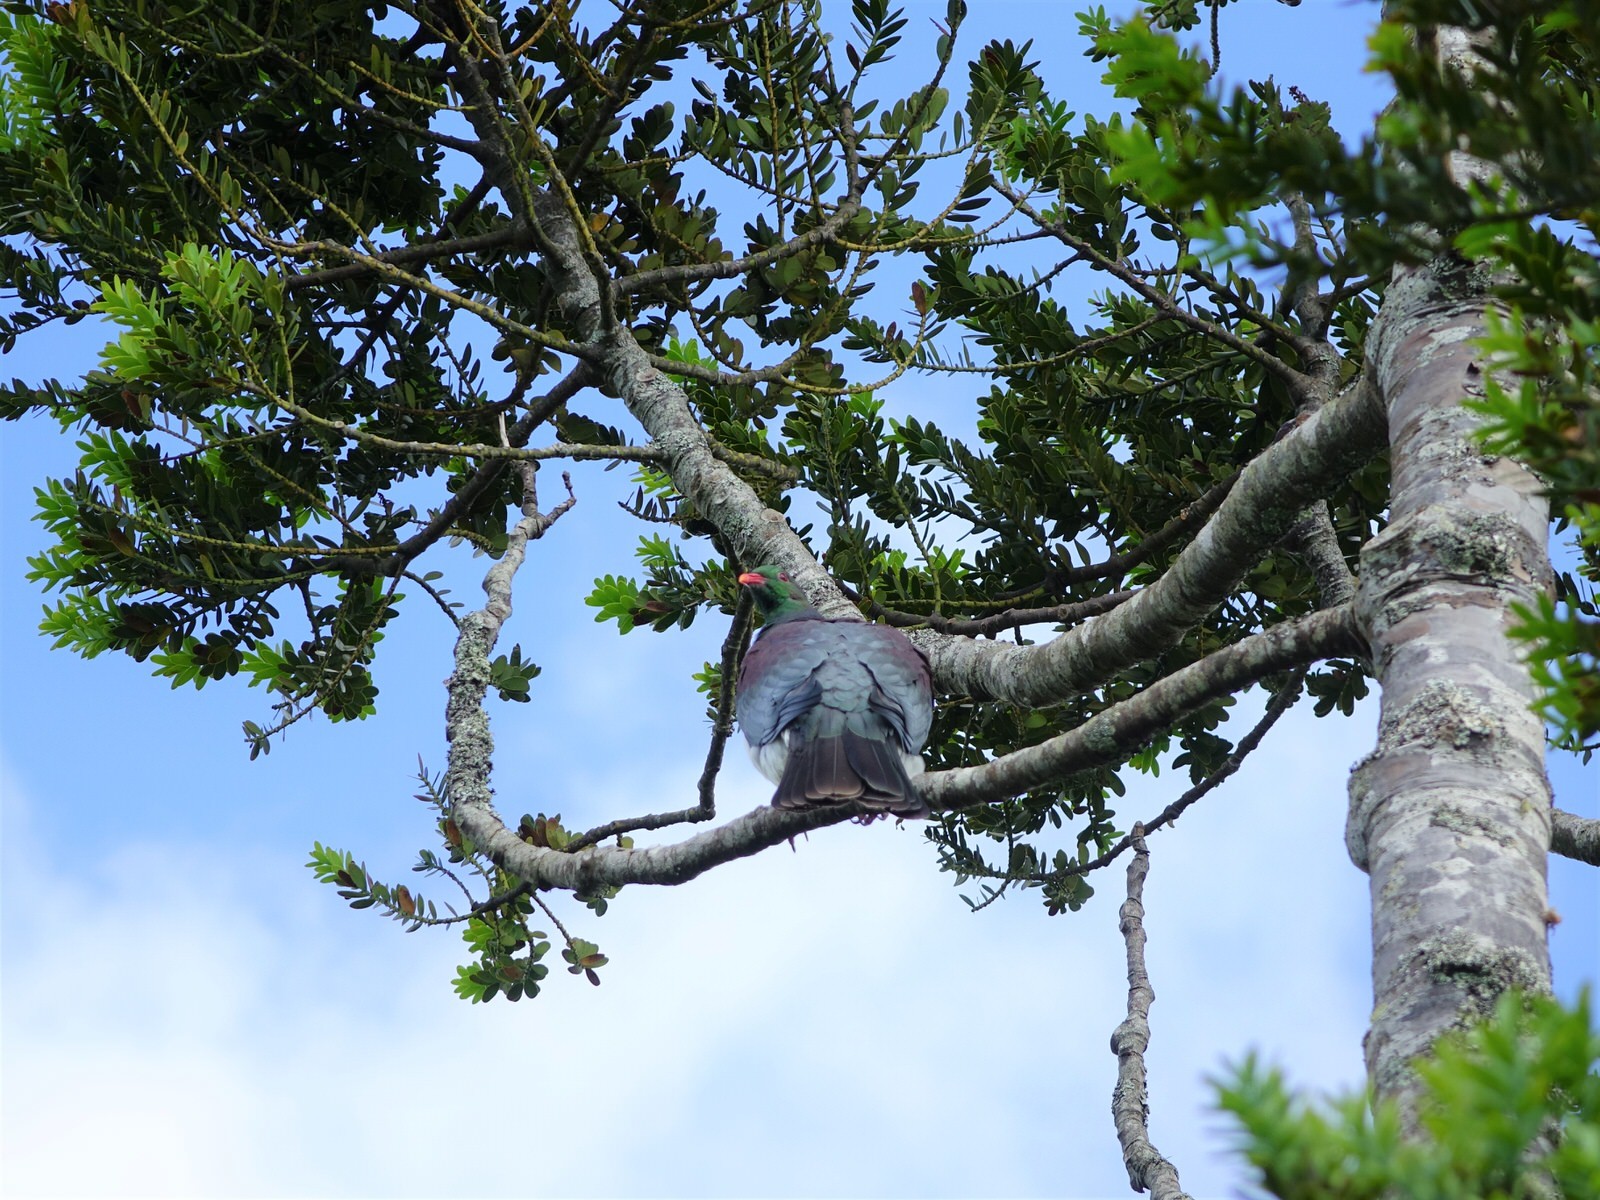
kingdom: Animalia
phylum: Chordata
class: Aves
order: Columbiformes
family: Columbidae
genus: Hemiphaga
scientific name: Hemiphaga novaeseelandiae
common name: New zealand pigeon
